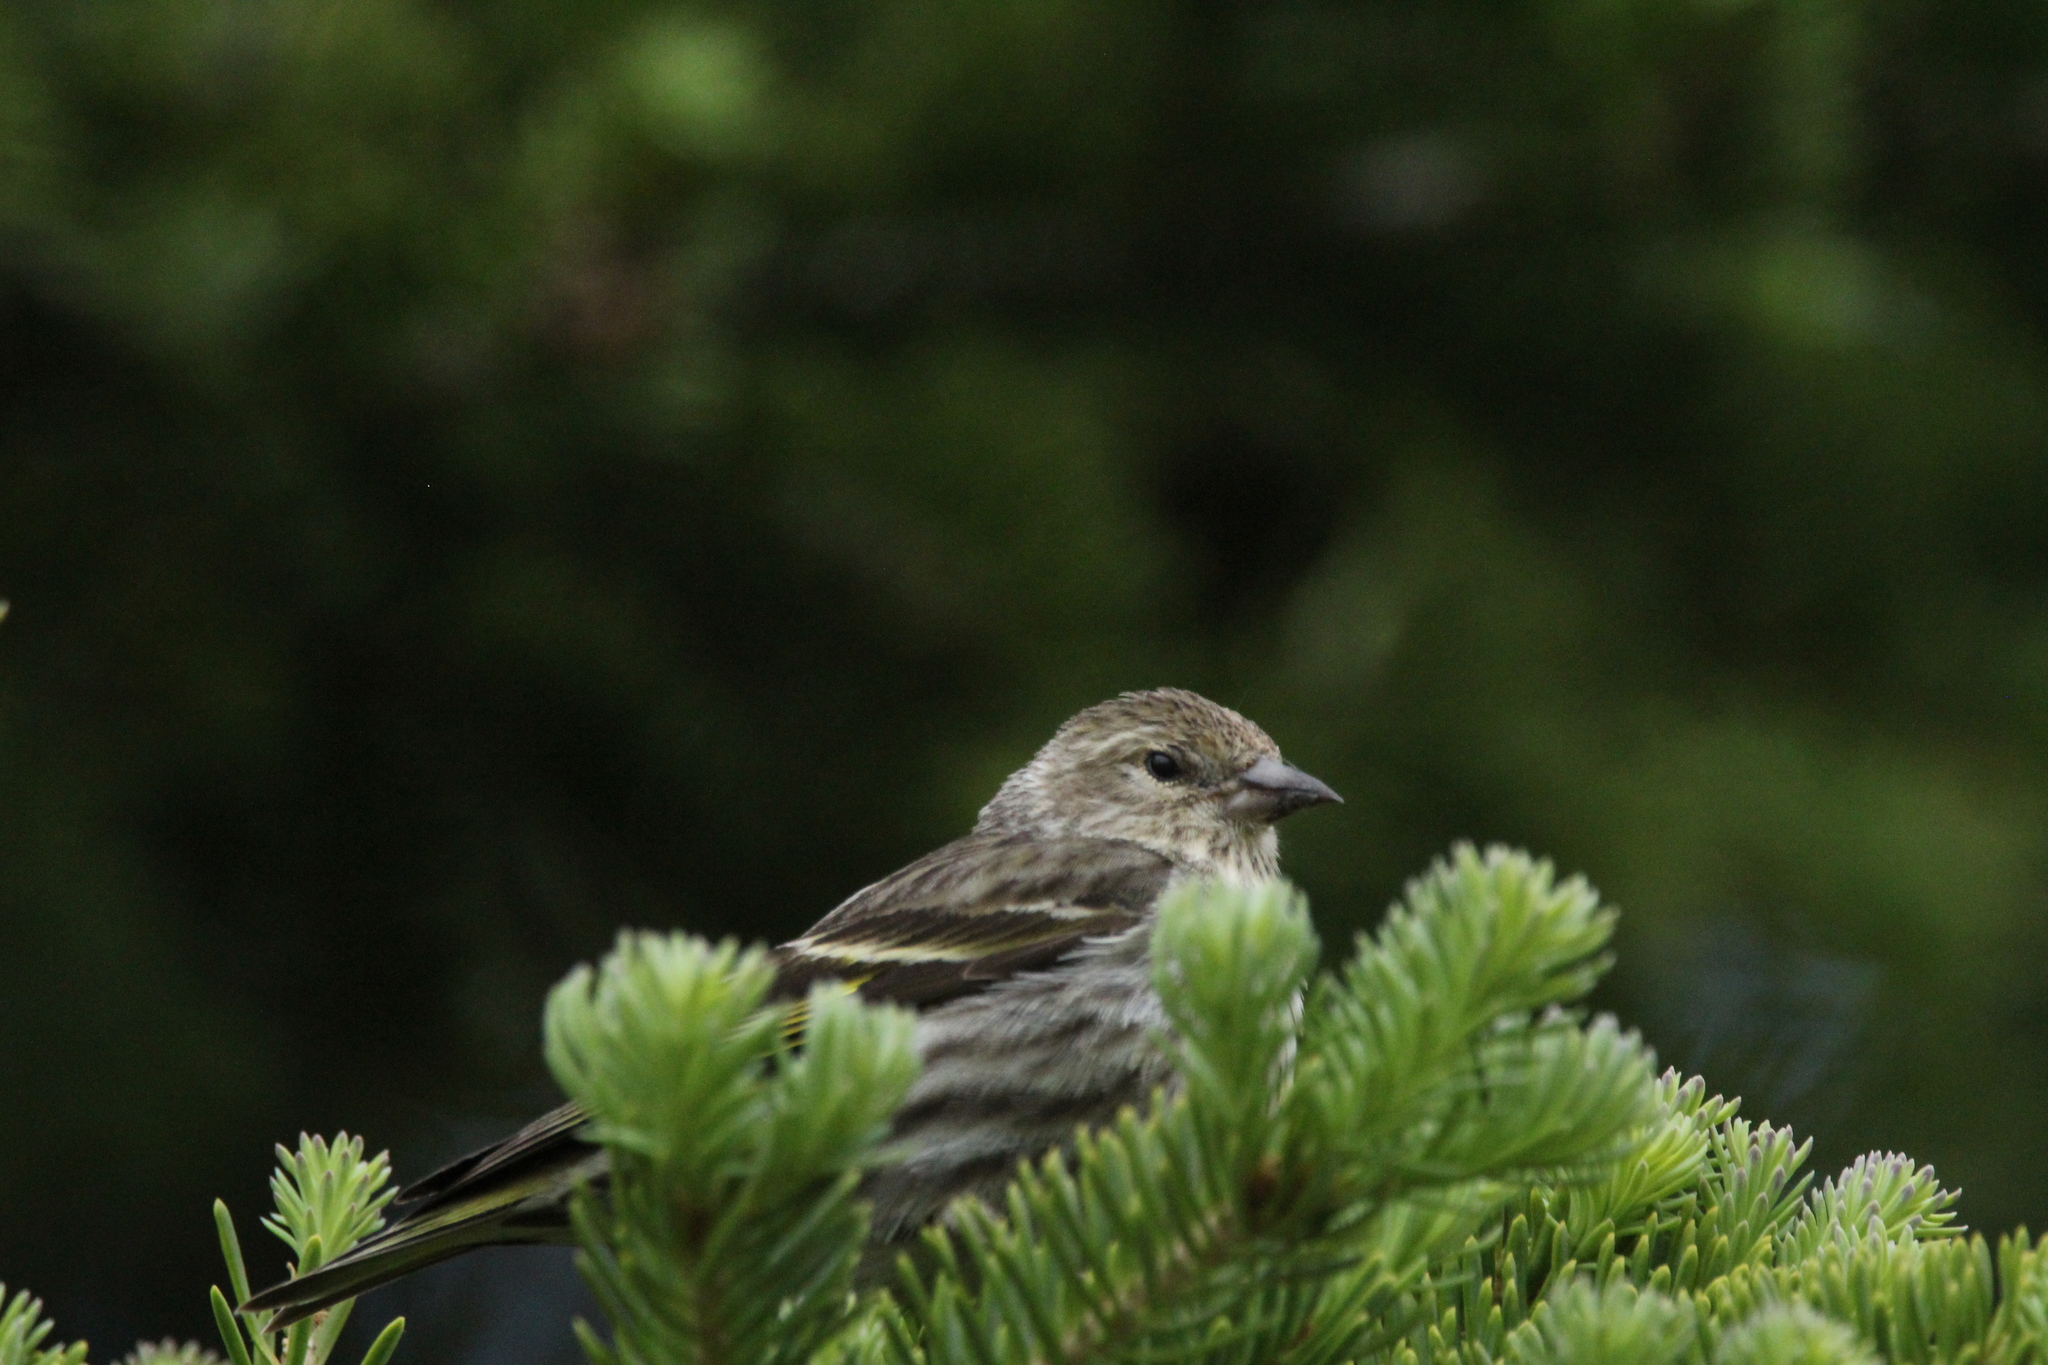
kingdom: Animalia
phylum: Chordata
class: Aves
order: Passeriformes
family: Fringillidae
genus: Spinus
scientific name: Spinus pinus
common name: Pine siskin
